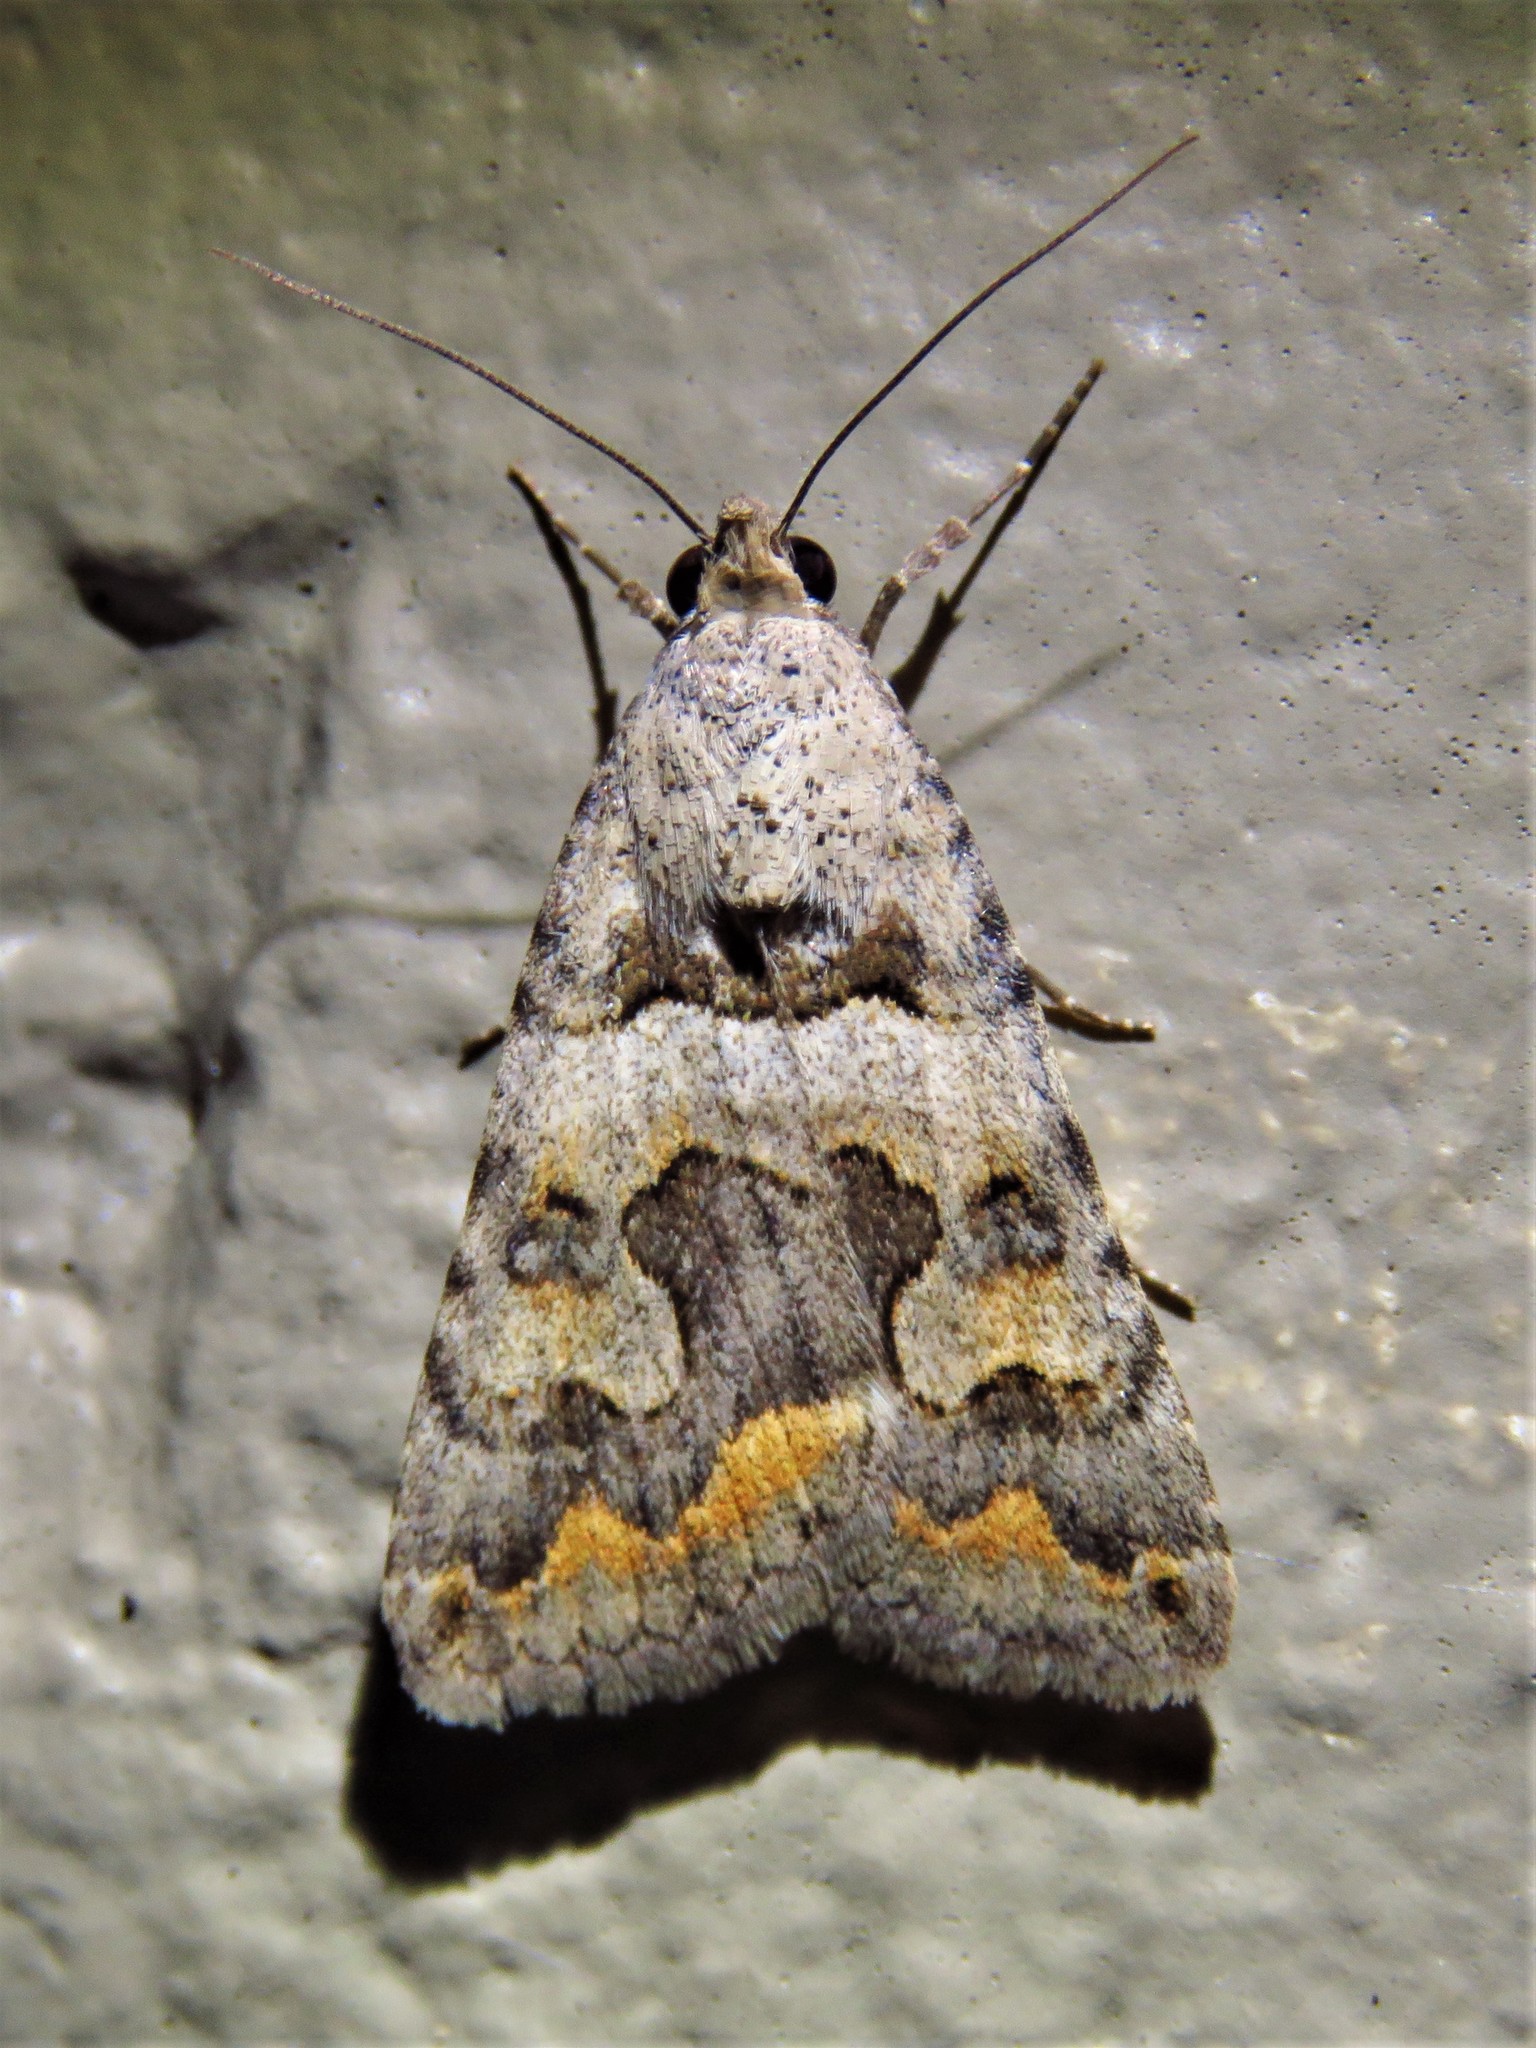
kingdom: Animalia
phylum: Arthropoda
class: Insecta
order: Lepidoptera
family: Erebidae
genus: Bulia
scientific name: Bulia deducta
